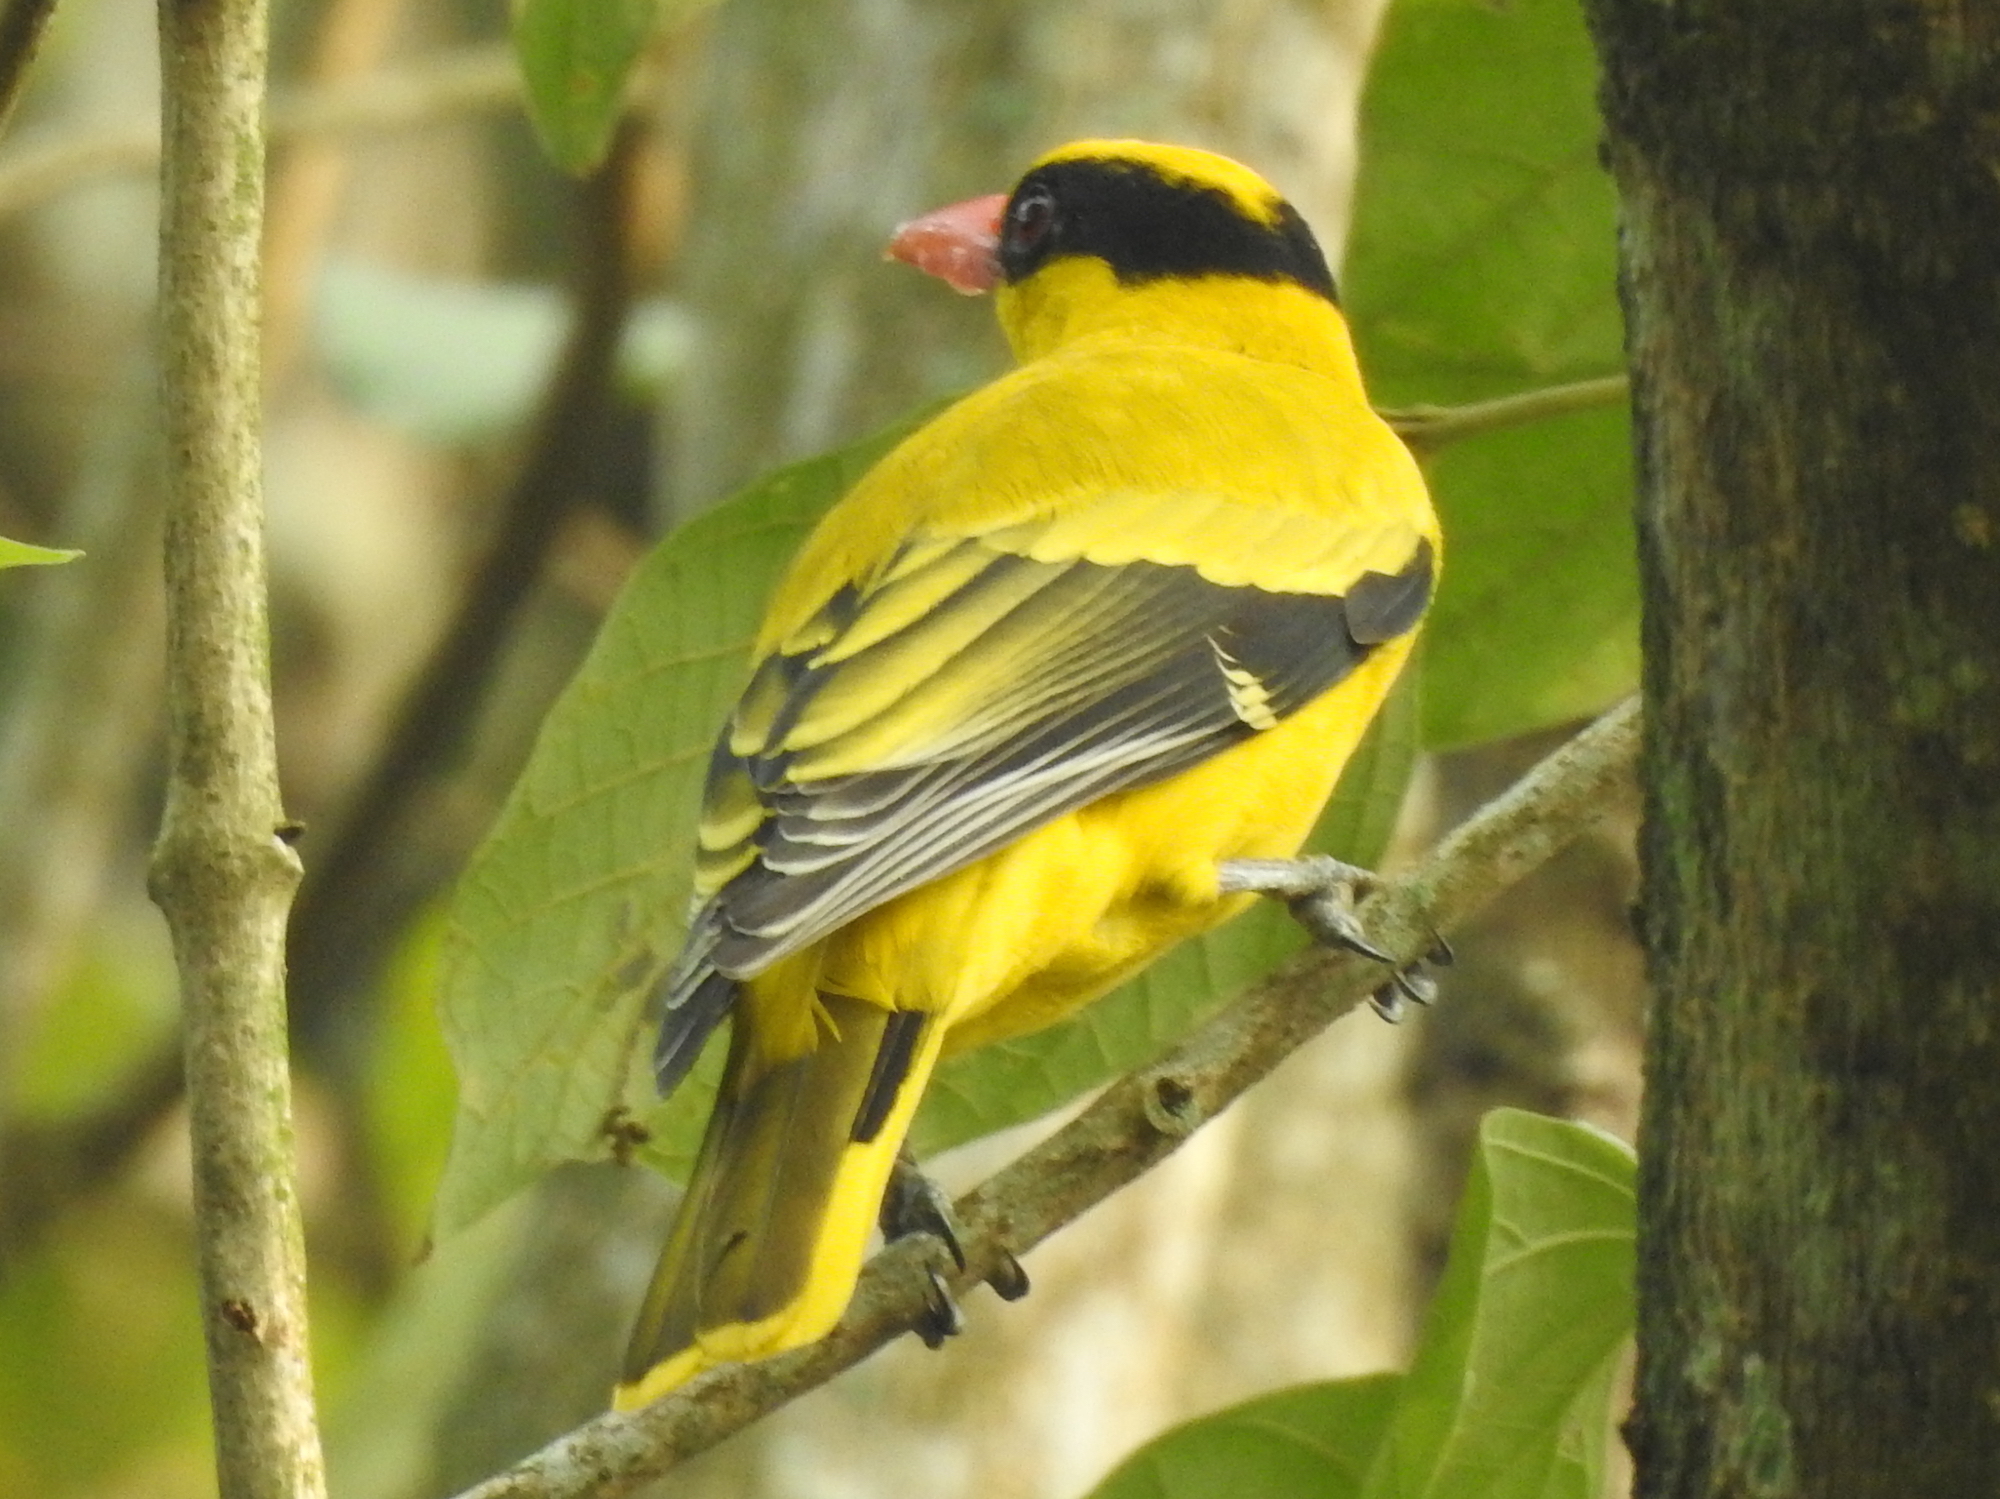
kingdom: Animalia
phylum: Chordata
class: Aves
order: Passeriformes
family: Oriolidae
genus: Oriolus
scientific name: Oriolus chinensis
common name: Black-naped oriole
